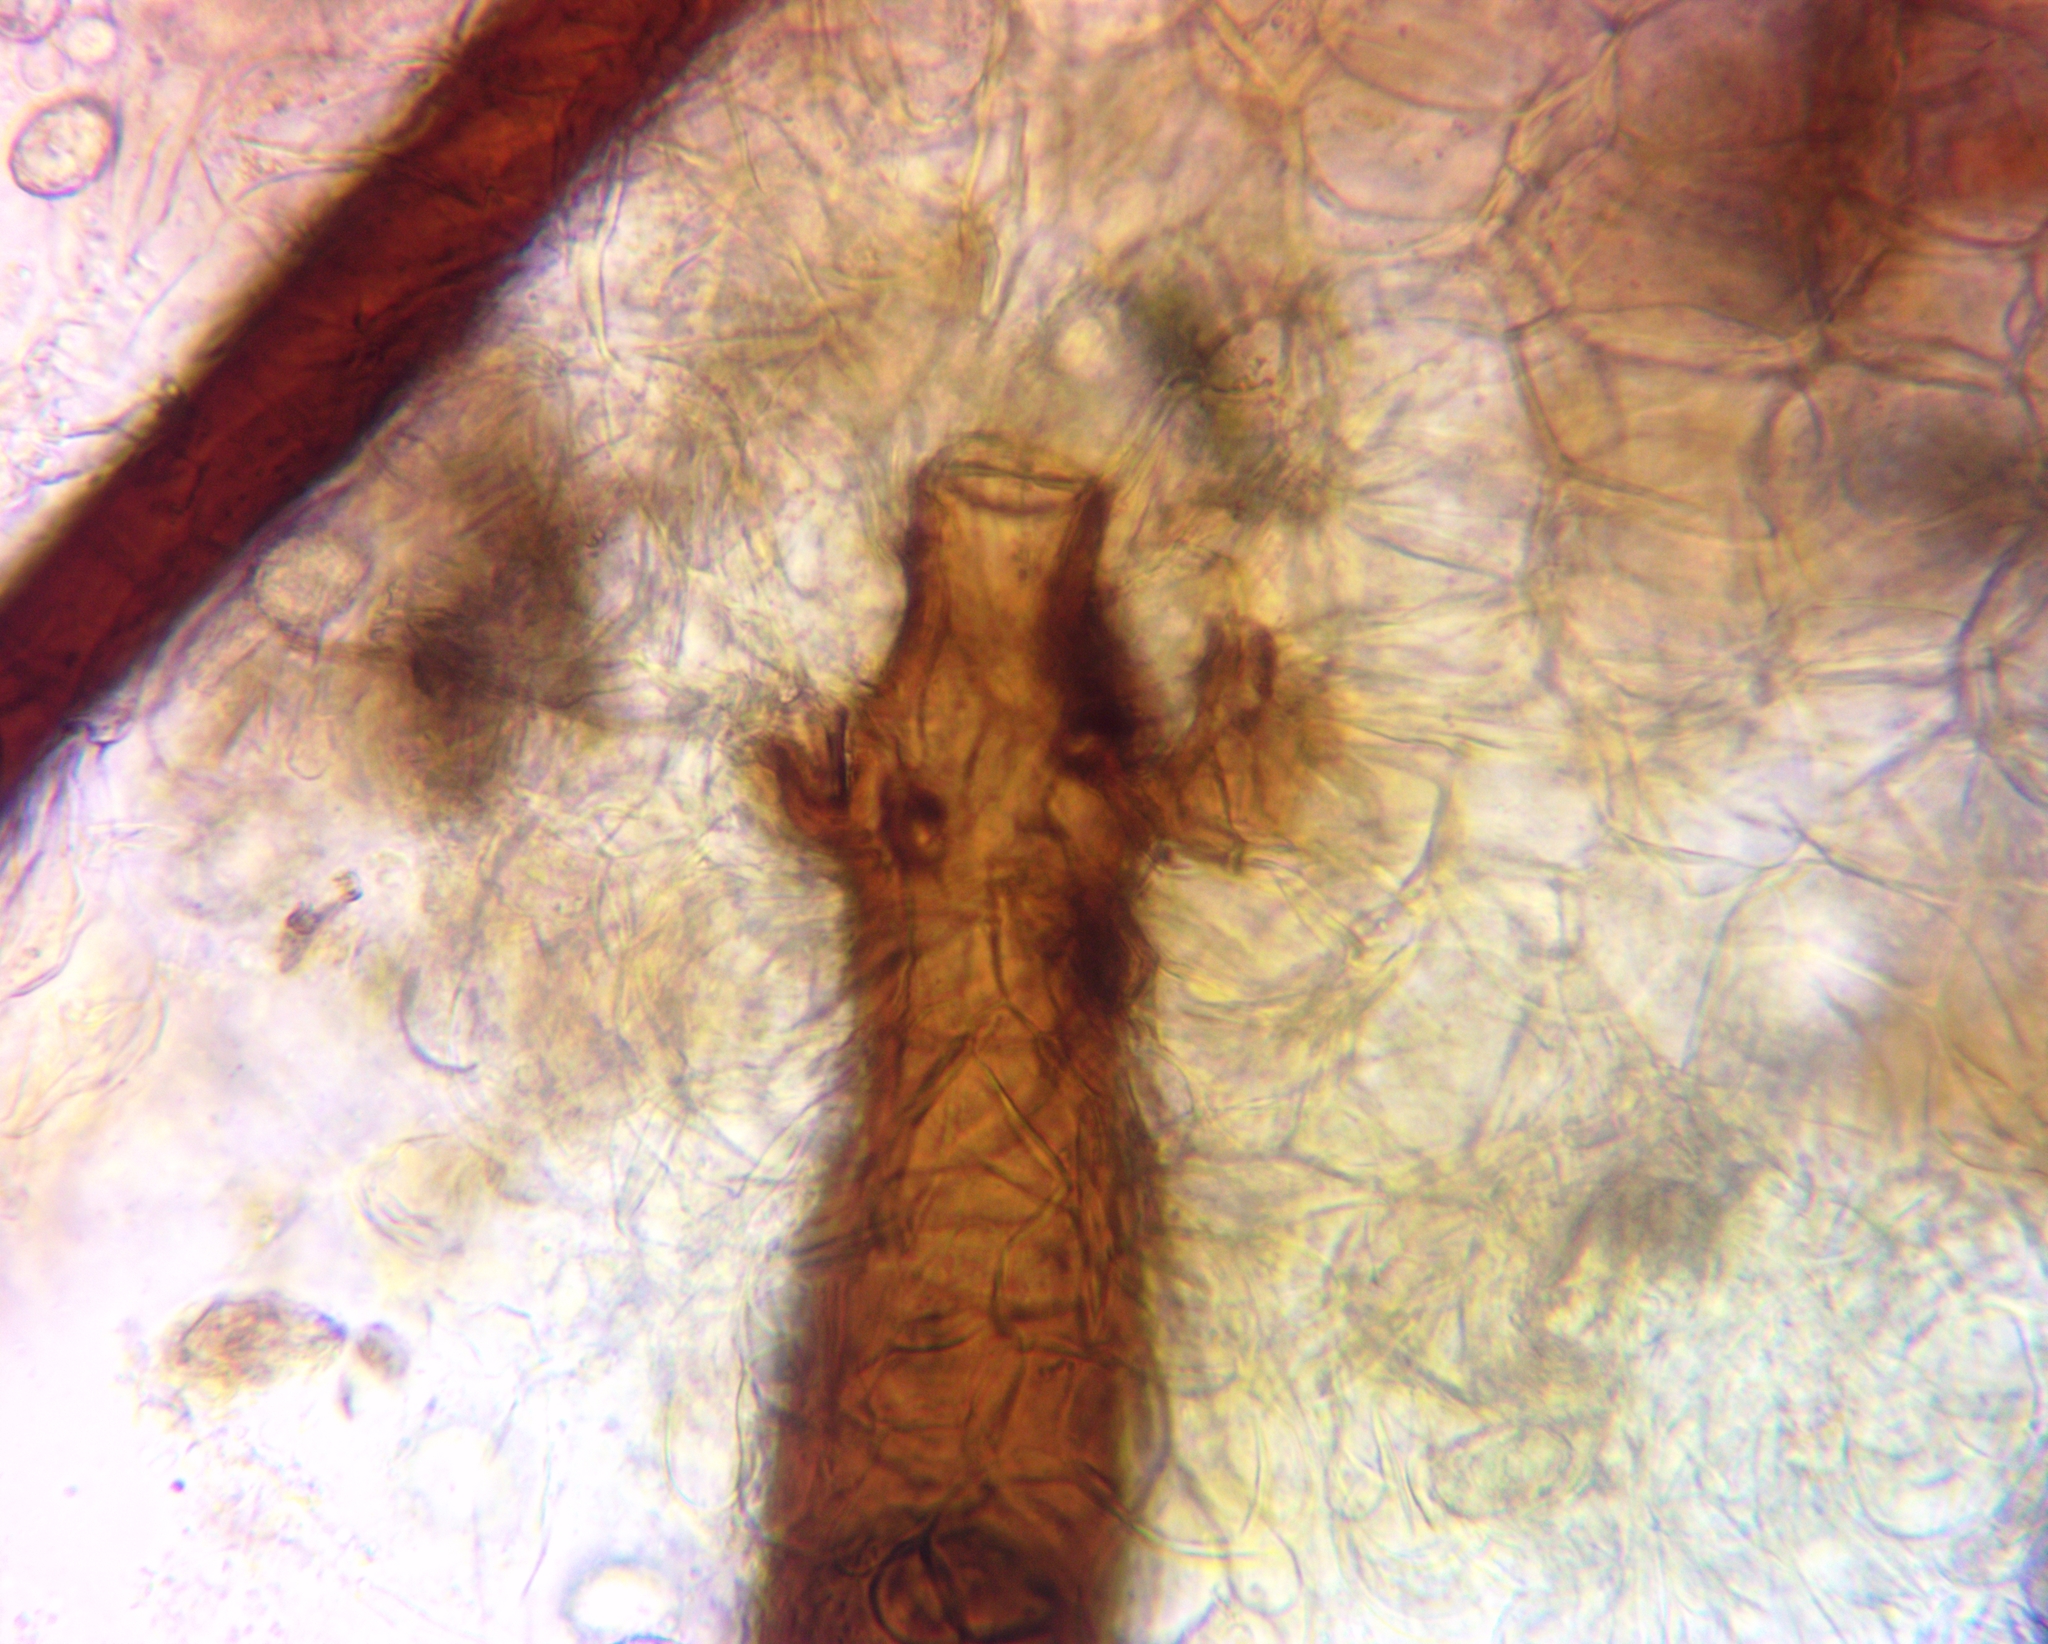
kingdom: Fungi
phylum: Ascomycota
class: Pezizomycetes
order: Pezizales
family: Pyronemataceae
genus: Scutellinia
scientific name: Scutellinia pennsylvanica
